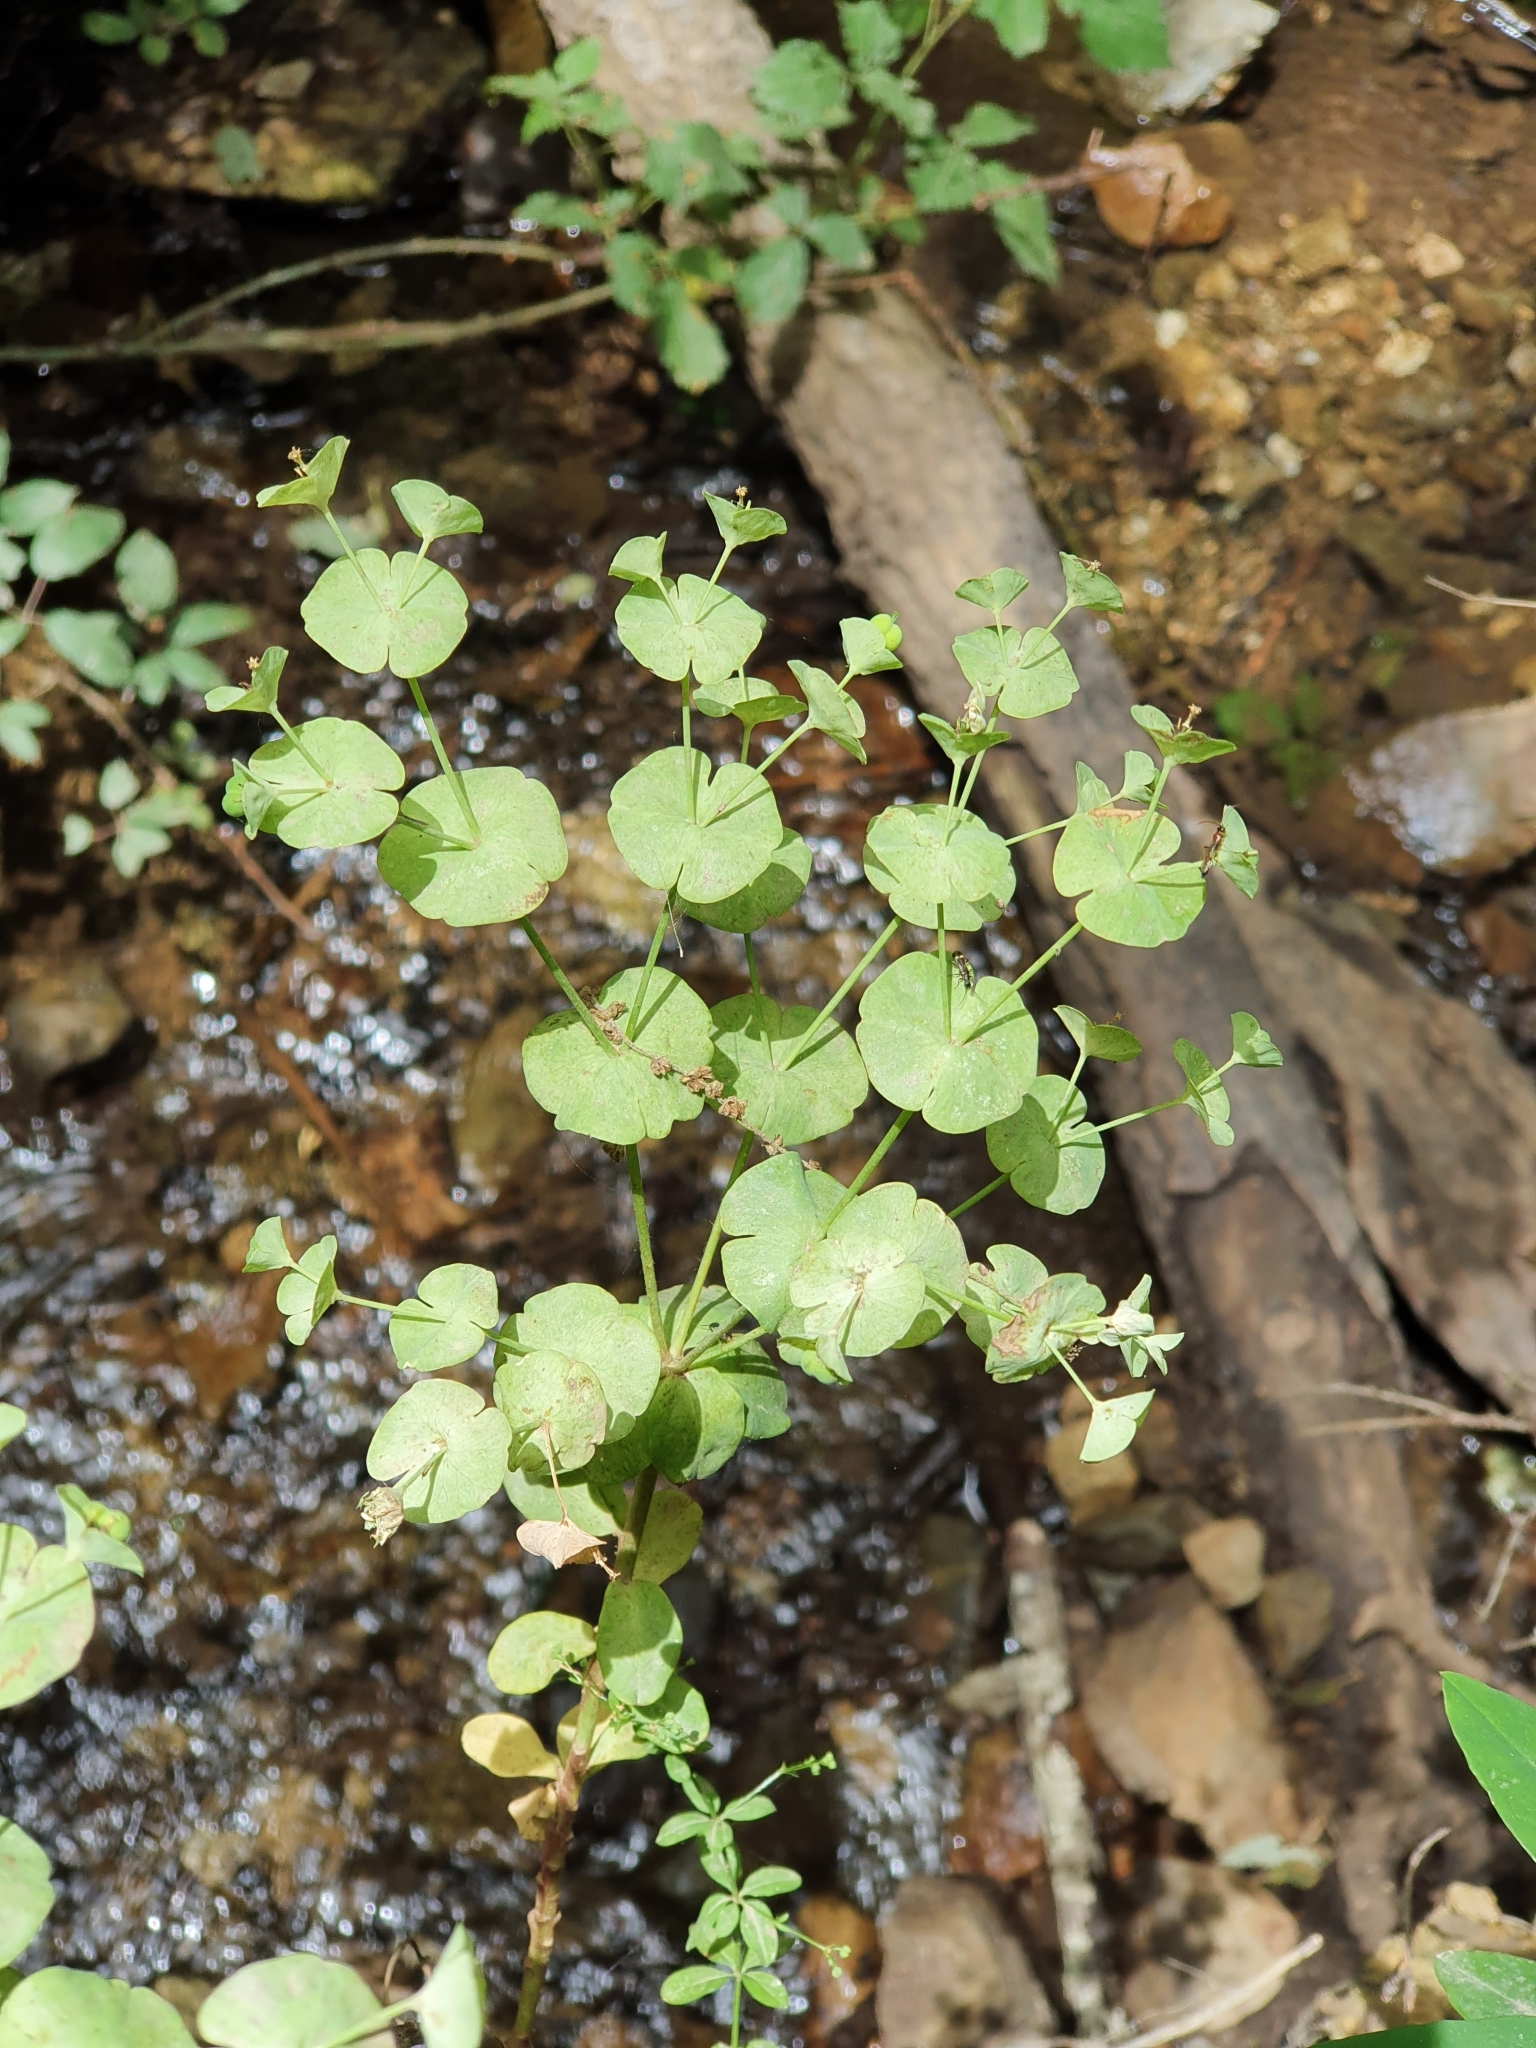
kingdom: Plantae
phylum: Tracheophyta
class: Magnoliopsida
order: Malpighiales
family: Euphorbiaceae
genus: Euphorbia
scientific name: Euphorbia amygdaloides
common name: Wood spurge
